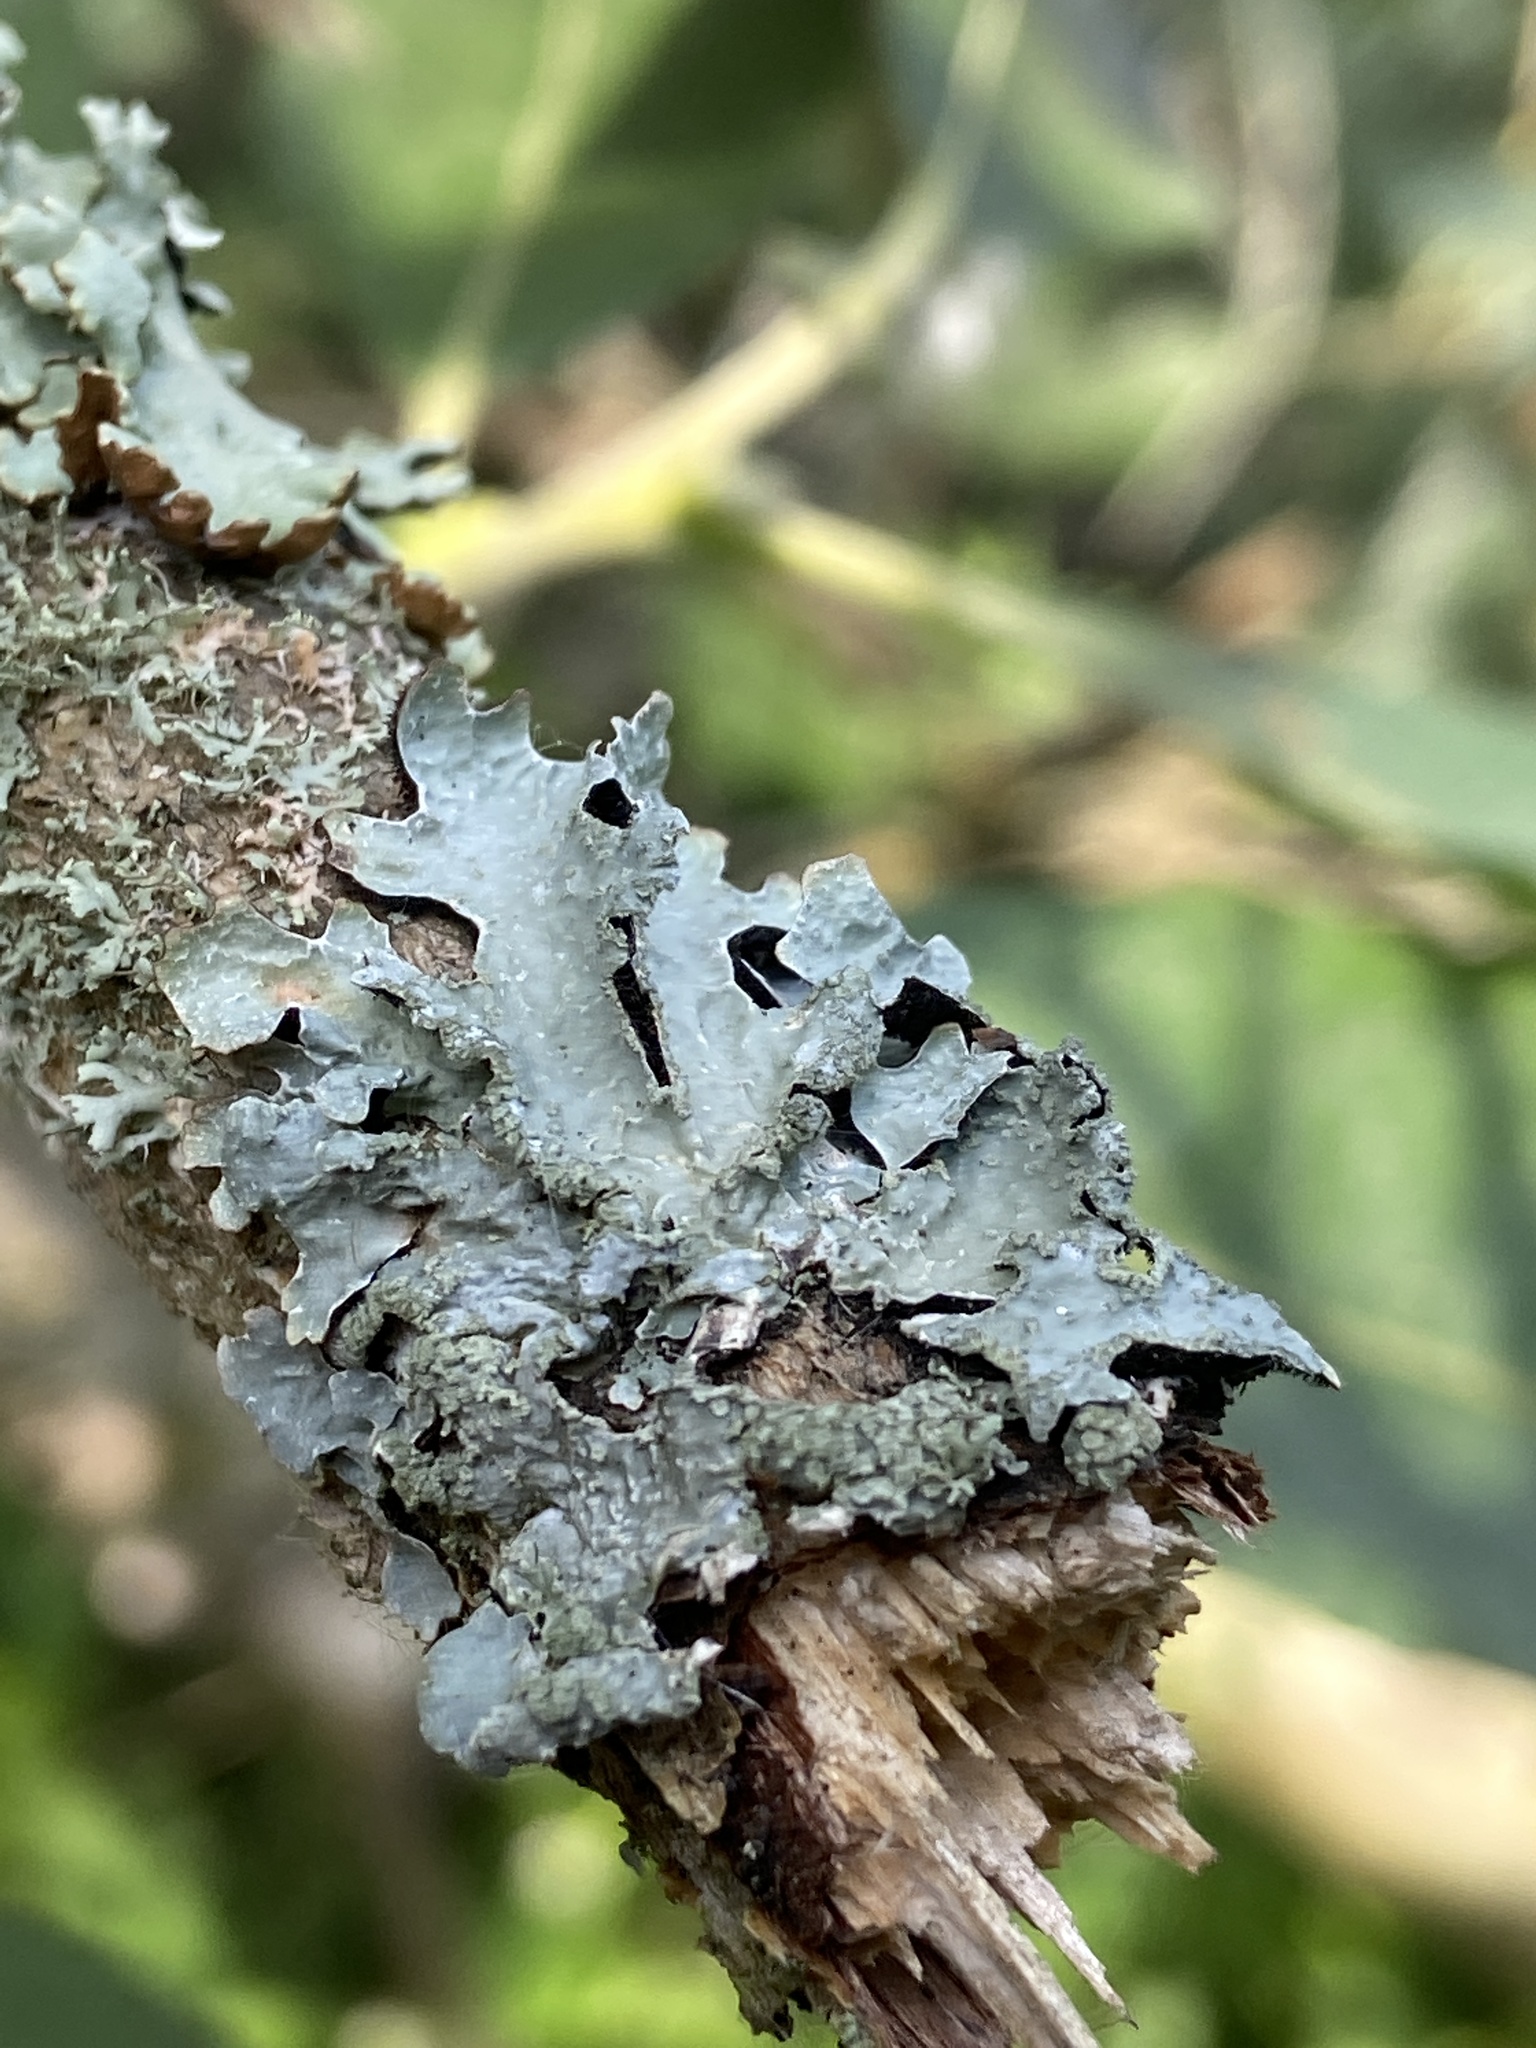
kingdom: Fungi
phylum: Ascomycota
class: Lecanoromycetes
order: Lecanorales
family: Parmeliaceae
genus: Parmelia
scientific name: Parmelia sulcata
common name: Netted shield lichen
